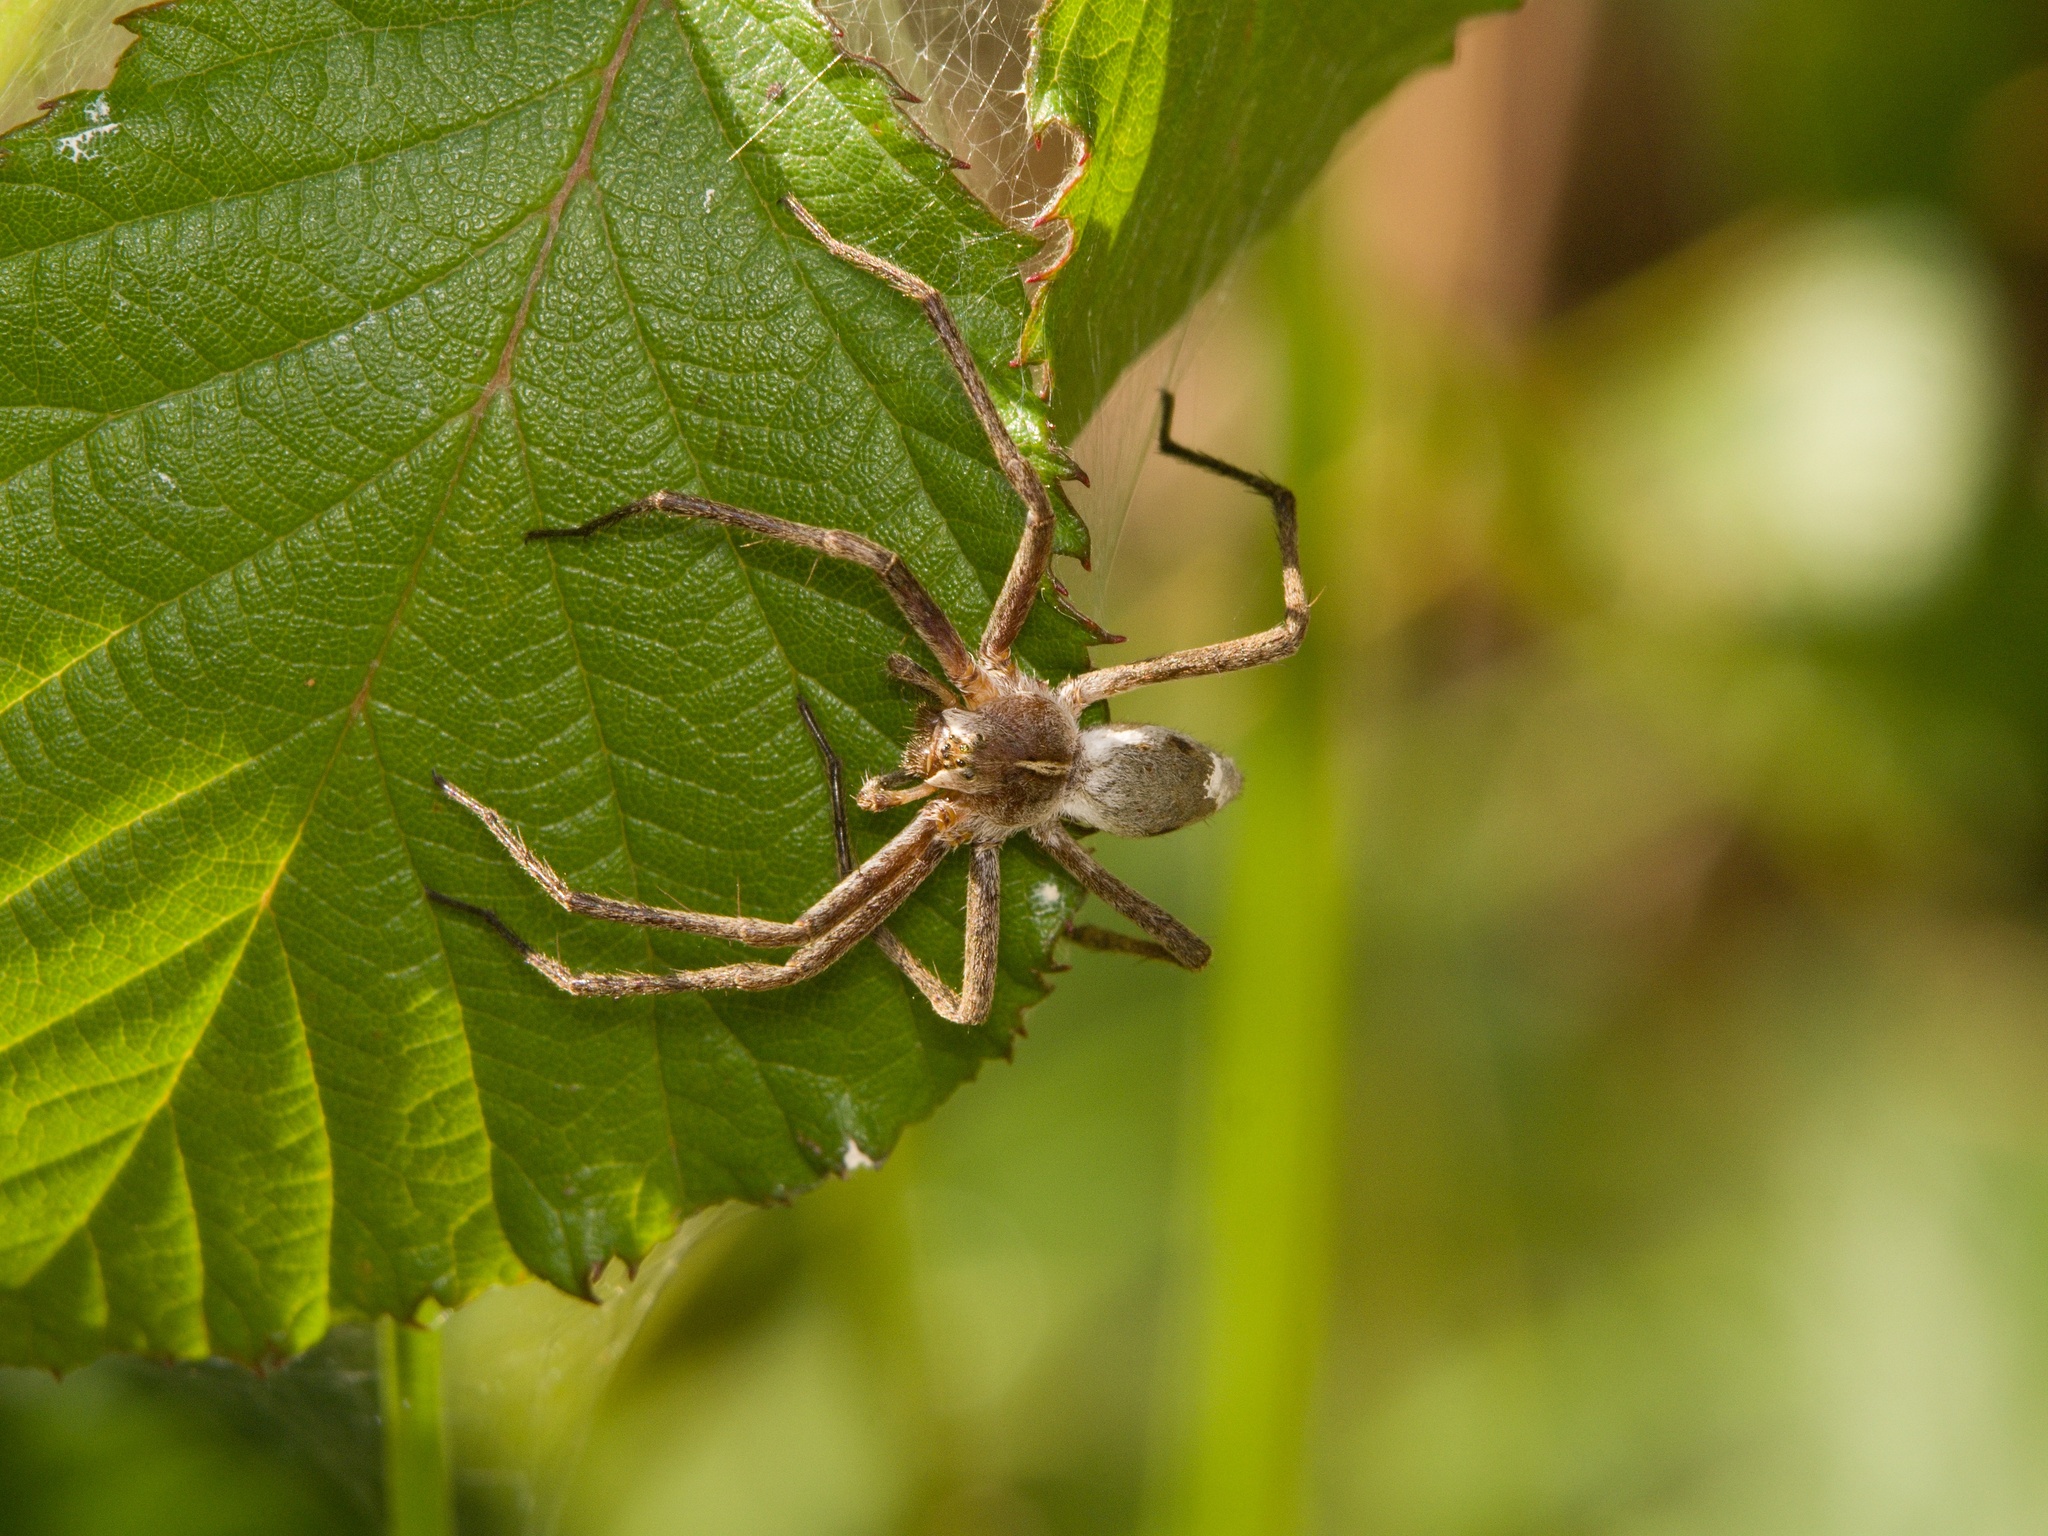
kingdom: Animalia
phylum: Arthropoda
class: Arachnida
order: Araneae
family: Pisauridae
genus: Pisaura
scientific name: Pisaura mirabilis
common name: Tent spider
